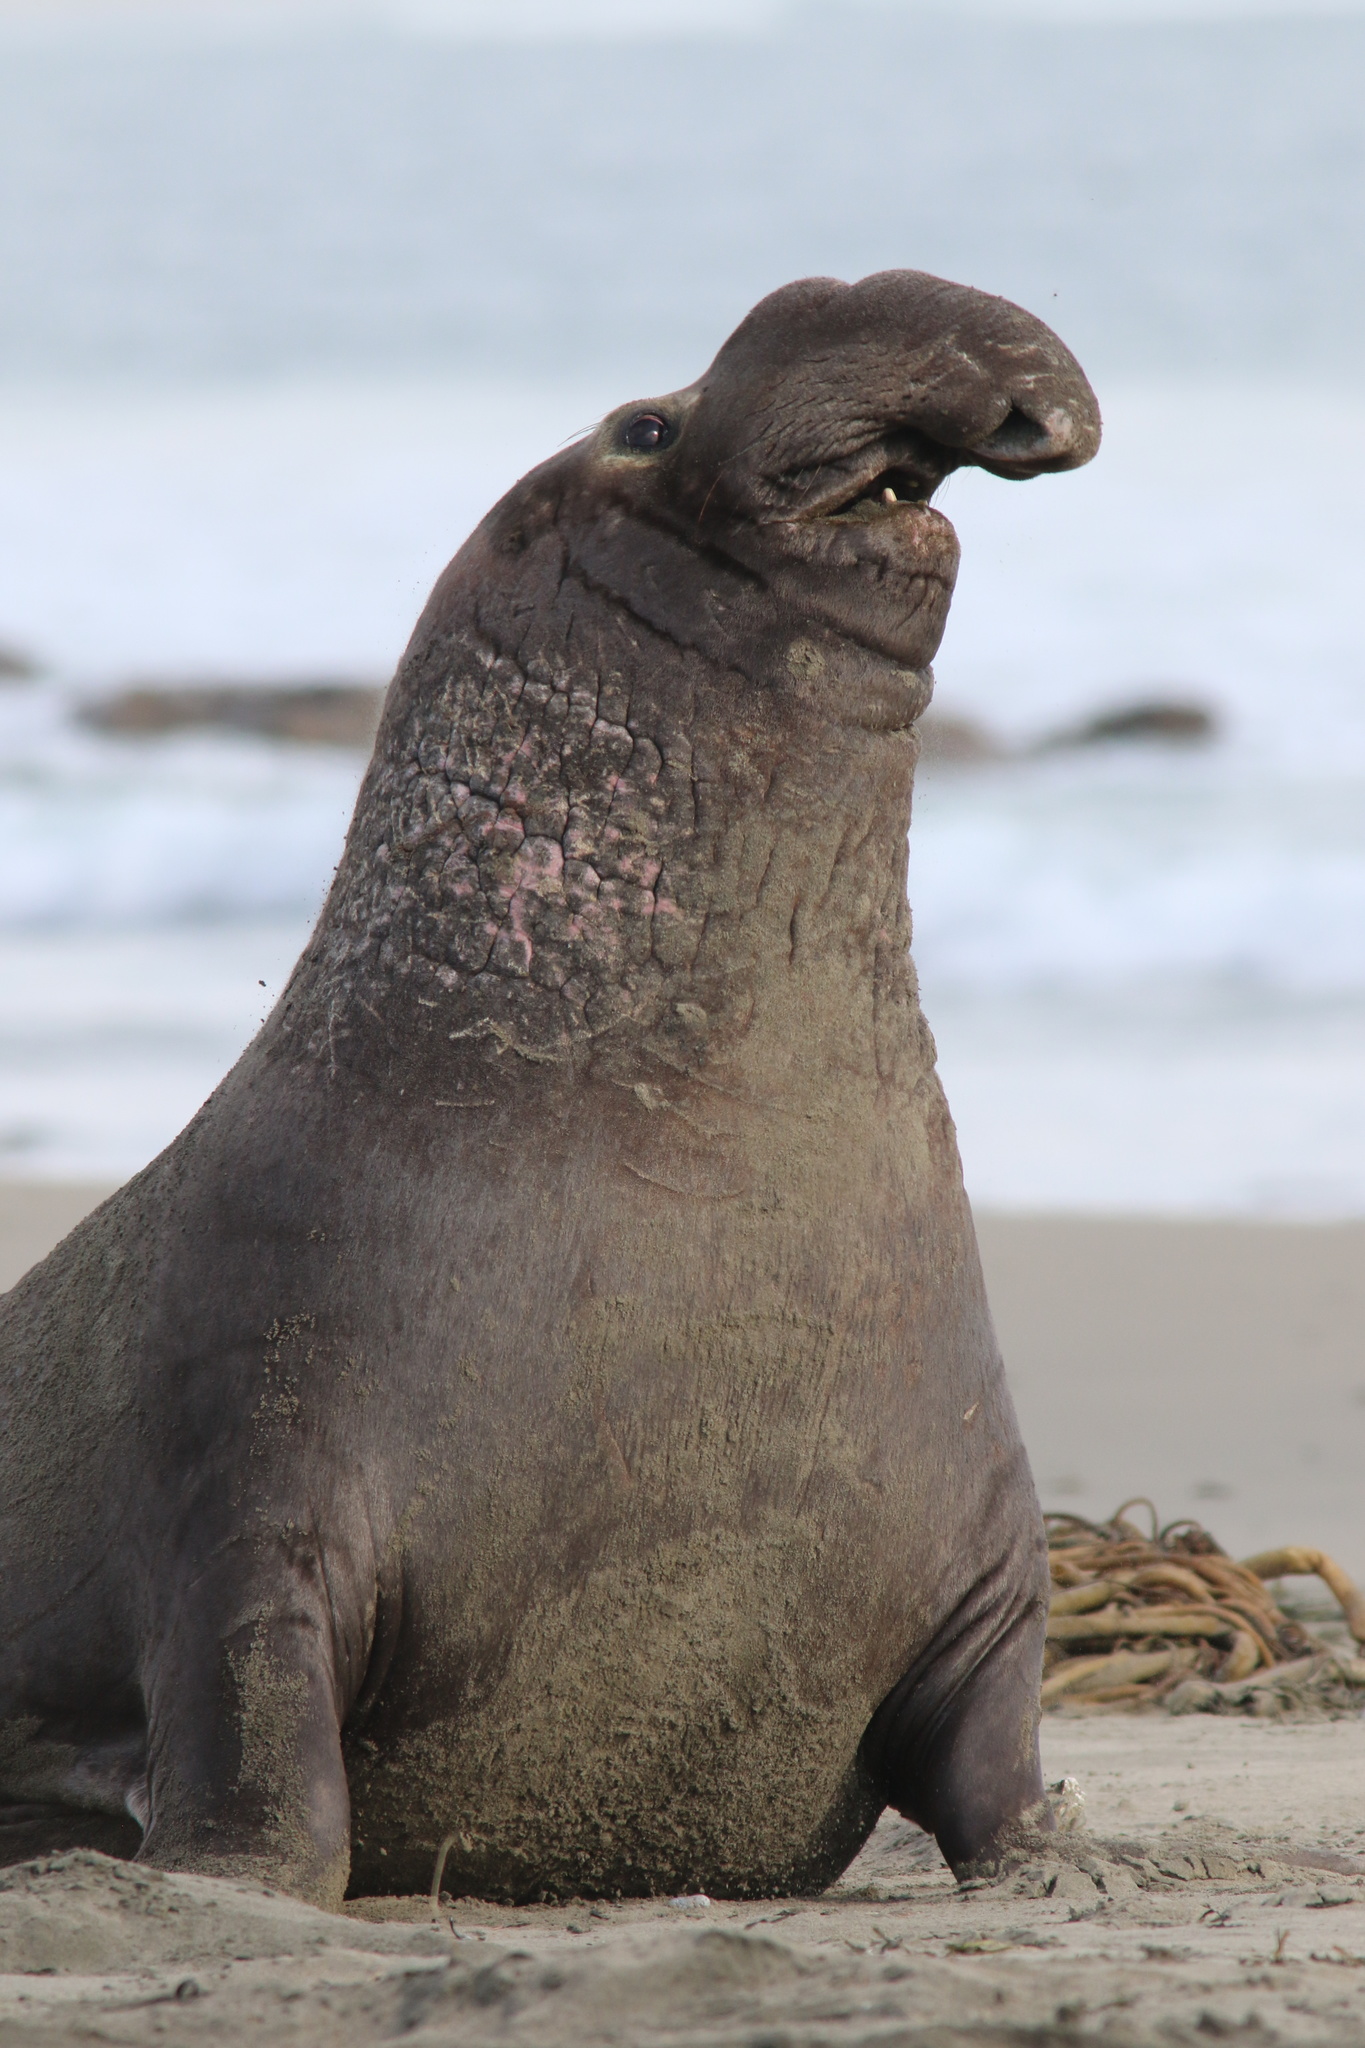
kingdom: Animalia
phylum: Chordata
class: Mammalia
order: Carnivora
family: Phocidae
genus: Mirounga
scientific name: Mirounga angustirostris
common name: Northern elephant seal
